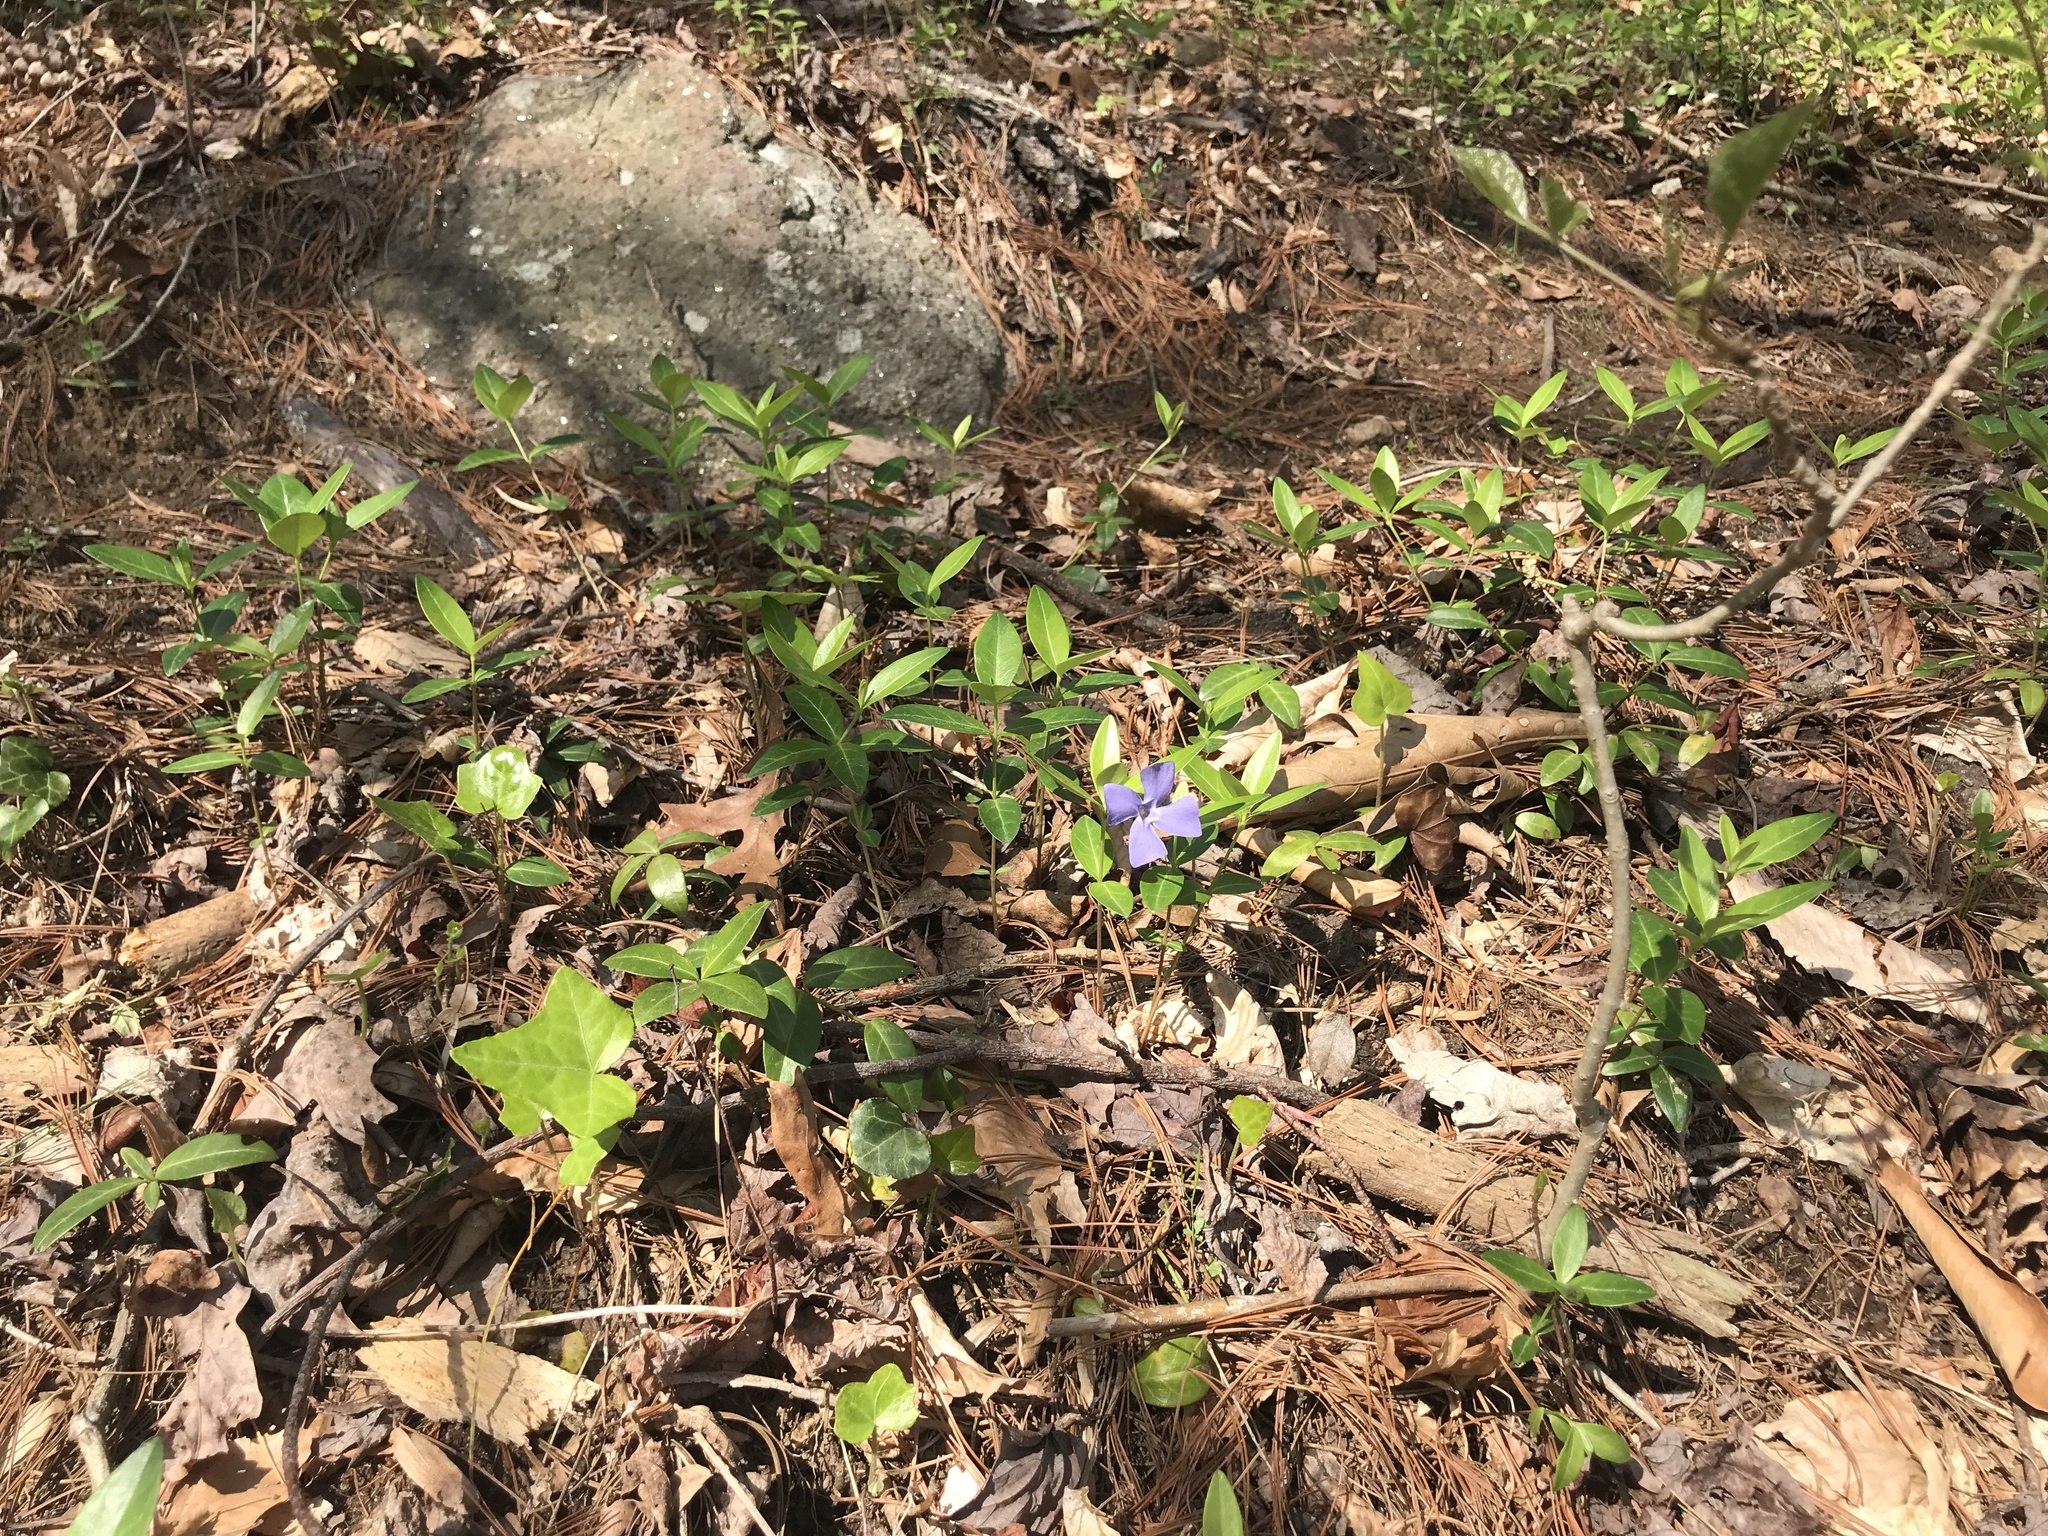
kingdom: Plantae
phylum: Tracheophyta
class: Magnoliopsida
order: Gentianales
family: Apocynaceae
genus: Vinca
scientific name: Vinca minor
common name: Lesser periwinkle
